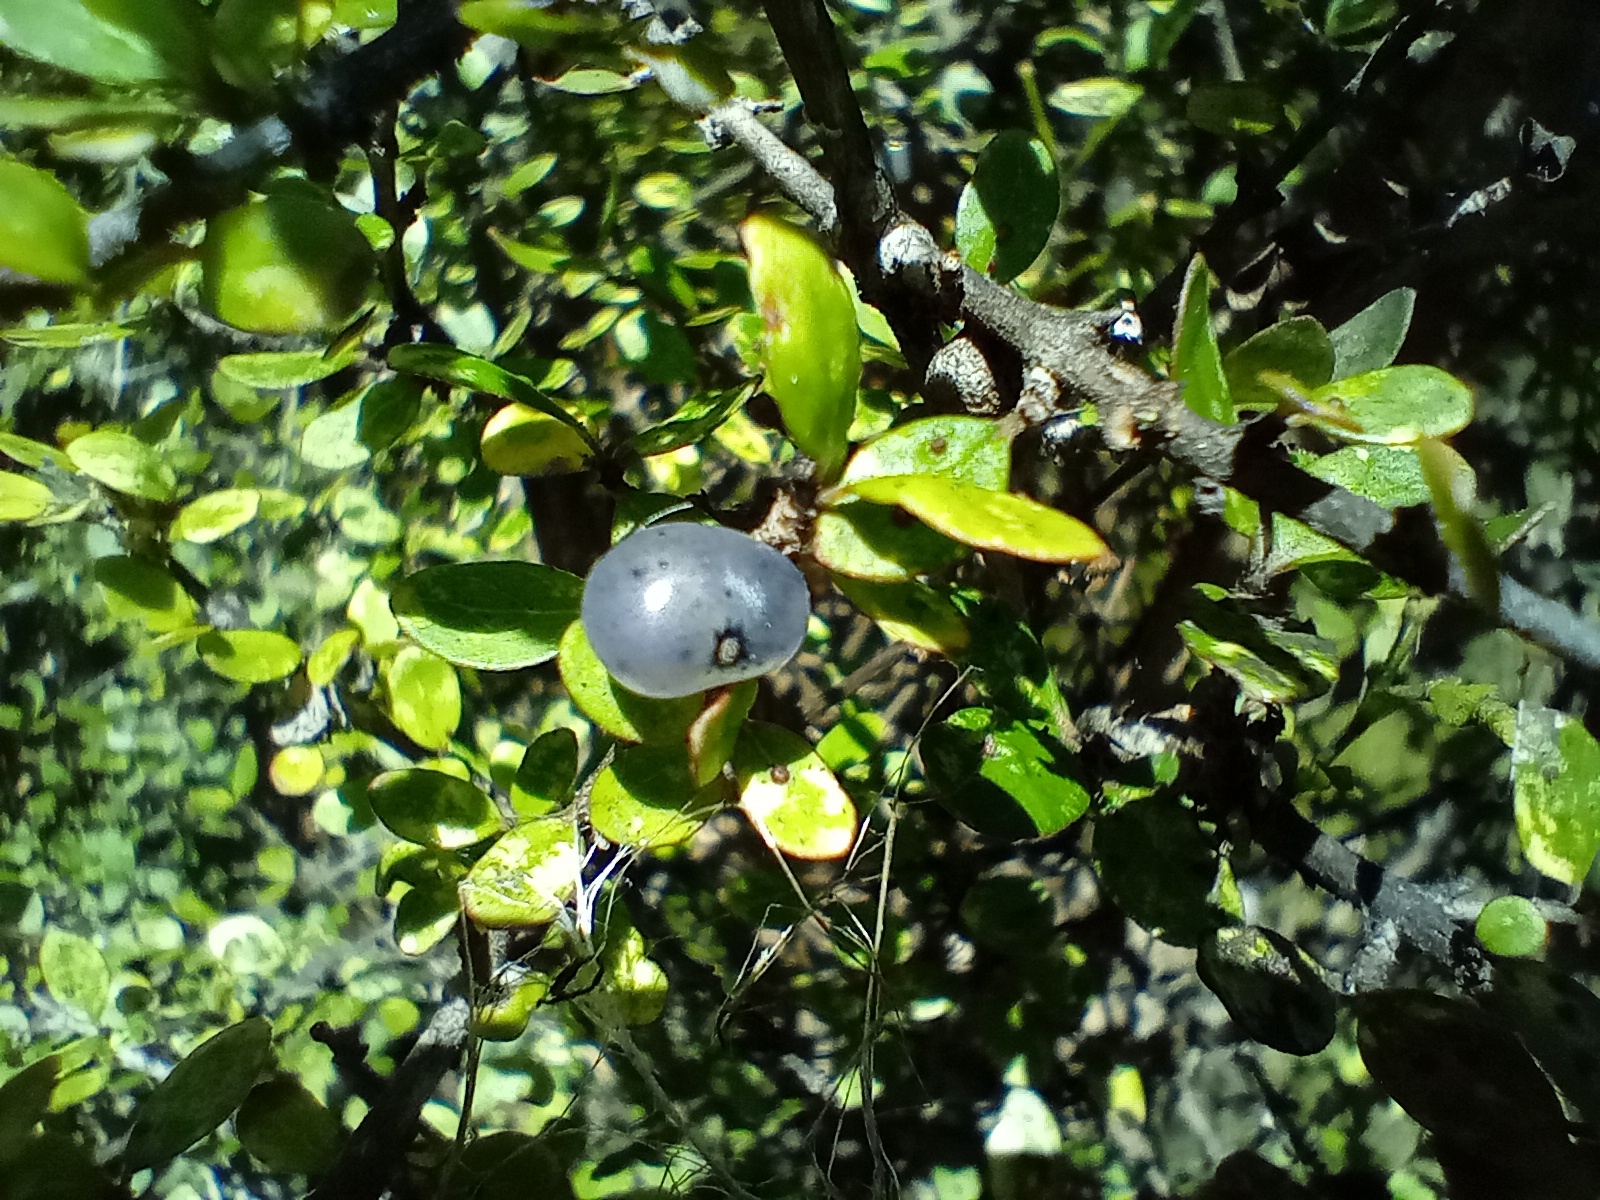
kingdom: Plantae
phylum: Tracheophyta
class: Magnoliopsida
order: Gentianales
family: Rubiaceae
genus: Coprosma
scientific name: Coprosma wallii
